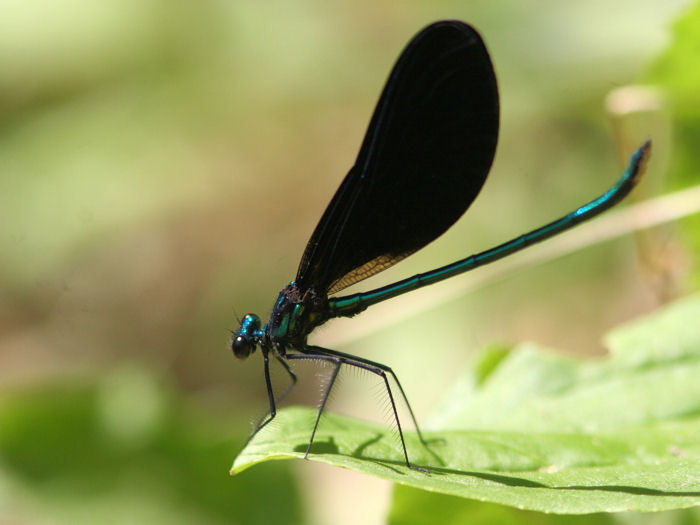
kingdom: Animalia
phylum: Arthropoda
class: Insecta
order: Odonata
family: Calopterygidae
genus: Calopteryx
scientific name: Calopteryx maculata
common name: Ebony jewelwing
